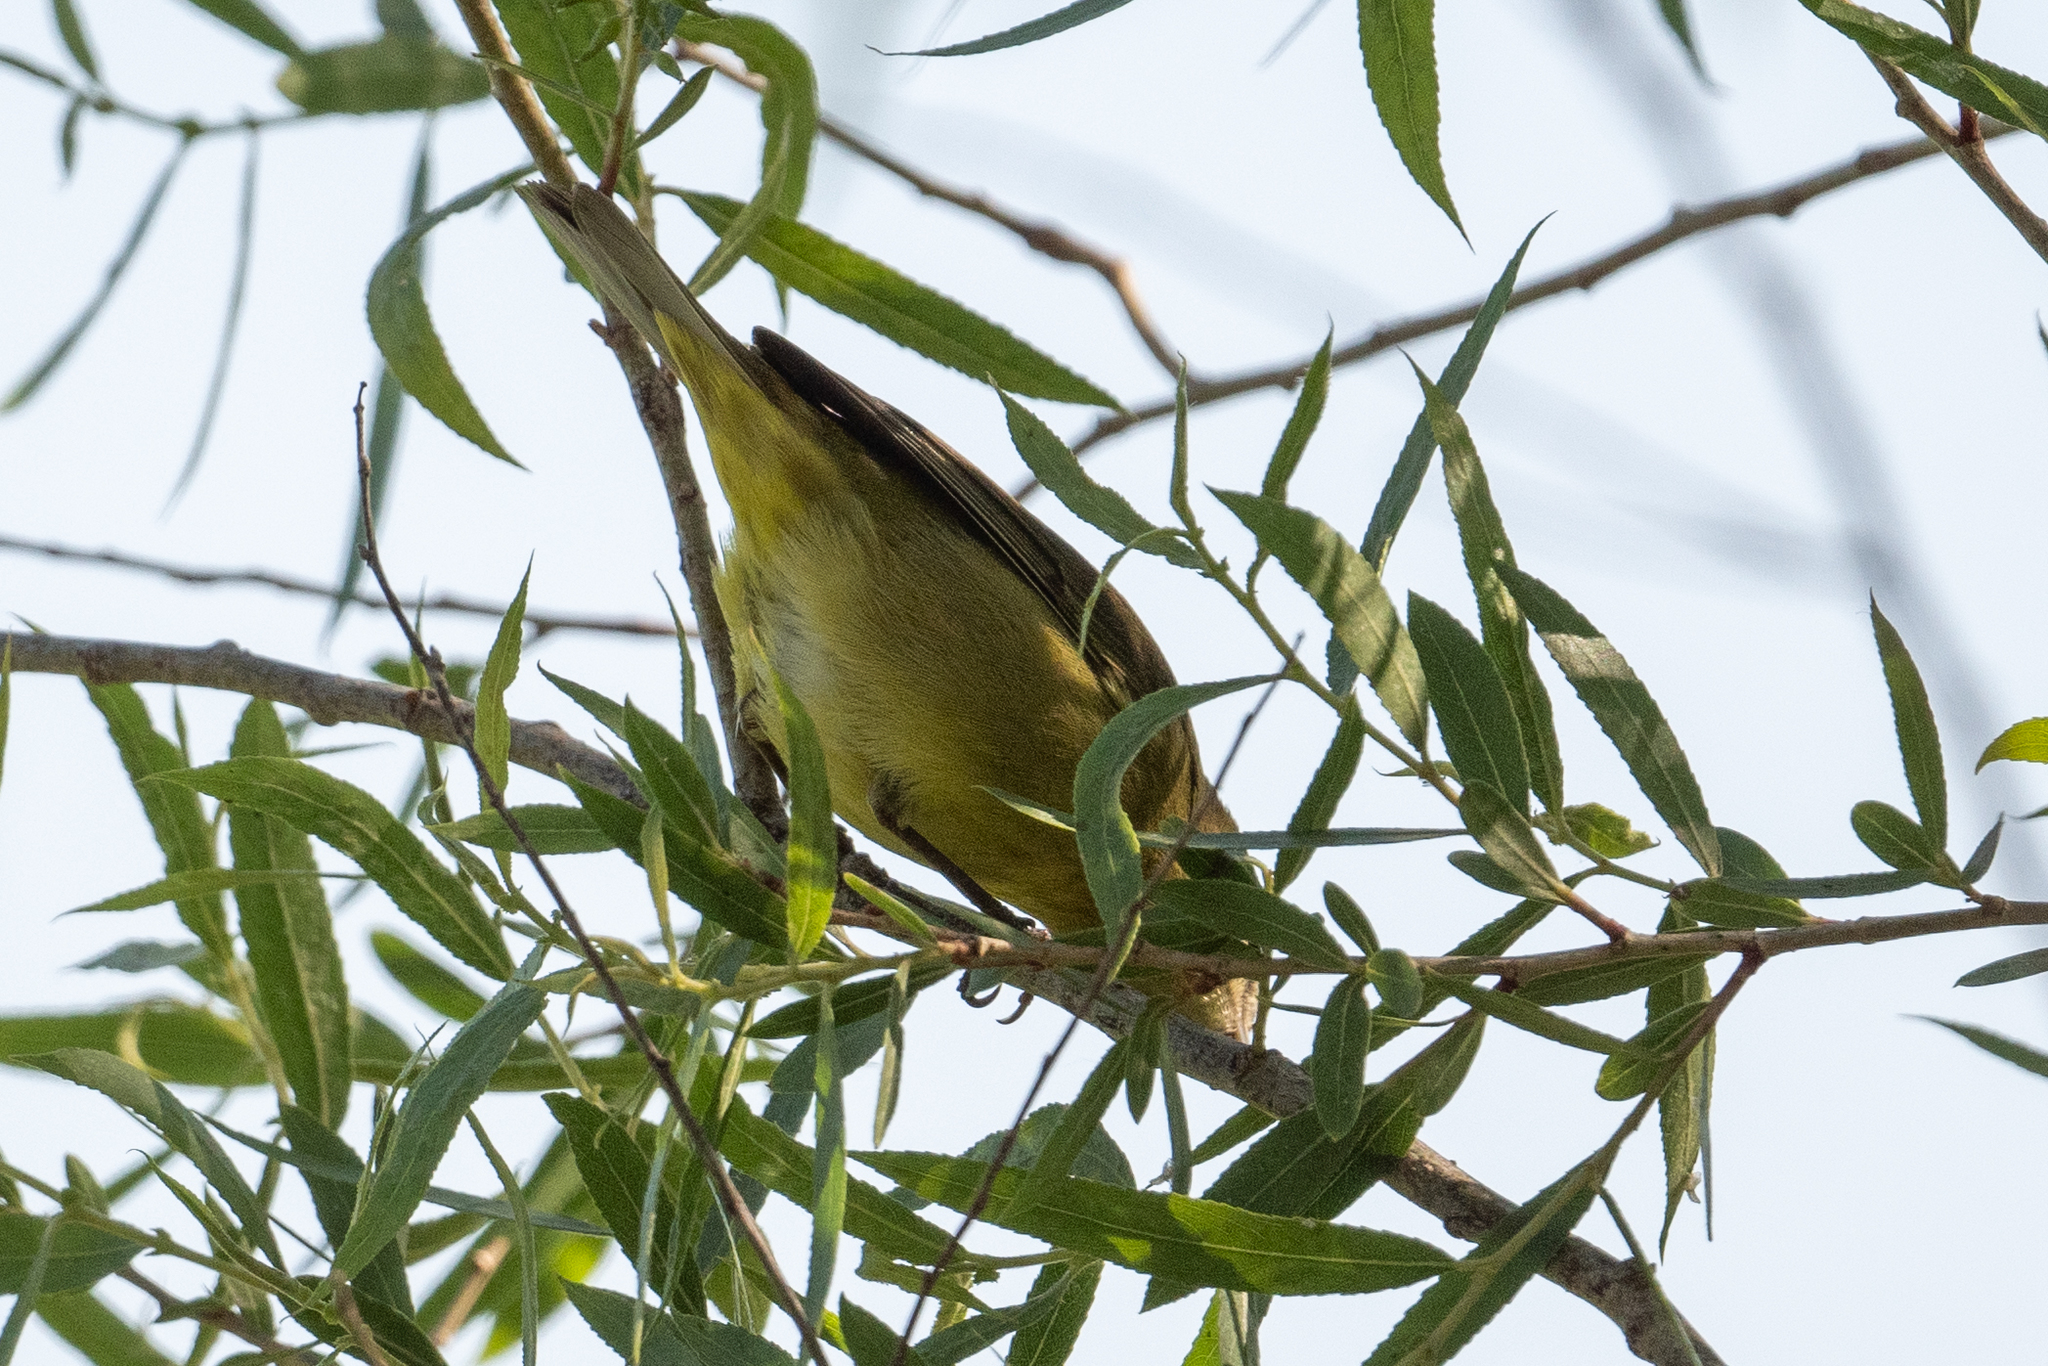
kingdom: Animalia
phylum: Chordata
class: Aves
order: Passeriformes
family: Parulidae
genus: Leiothlypis
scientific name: Leiothlypis celata
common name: Orange-crowned warbler
